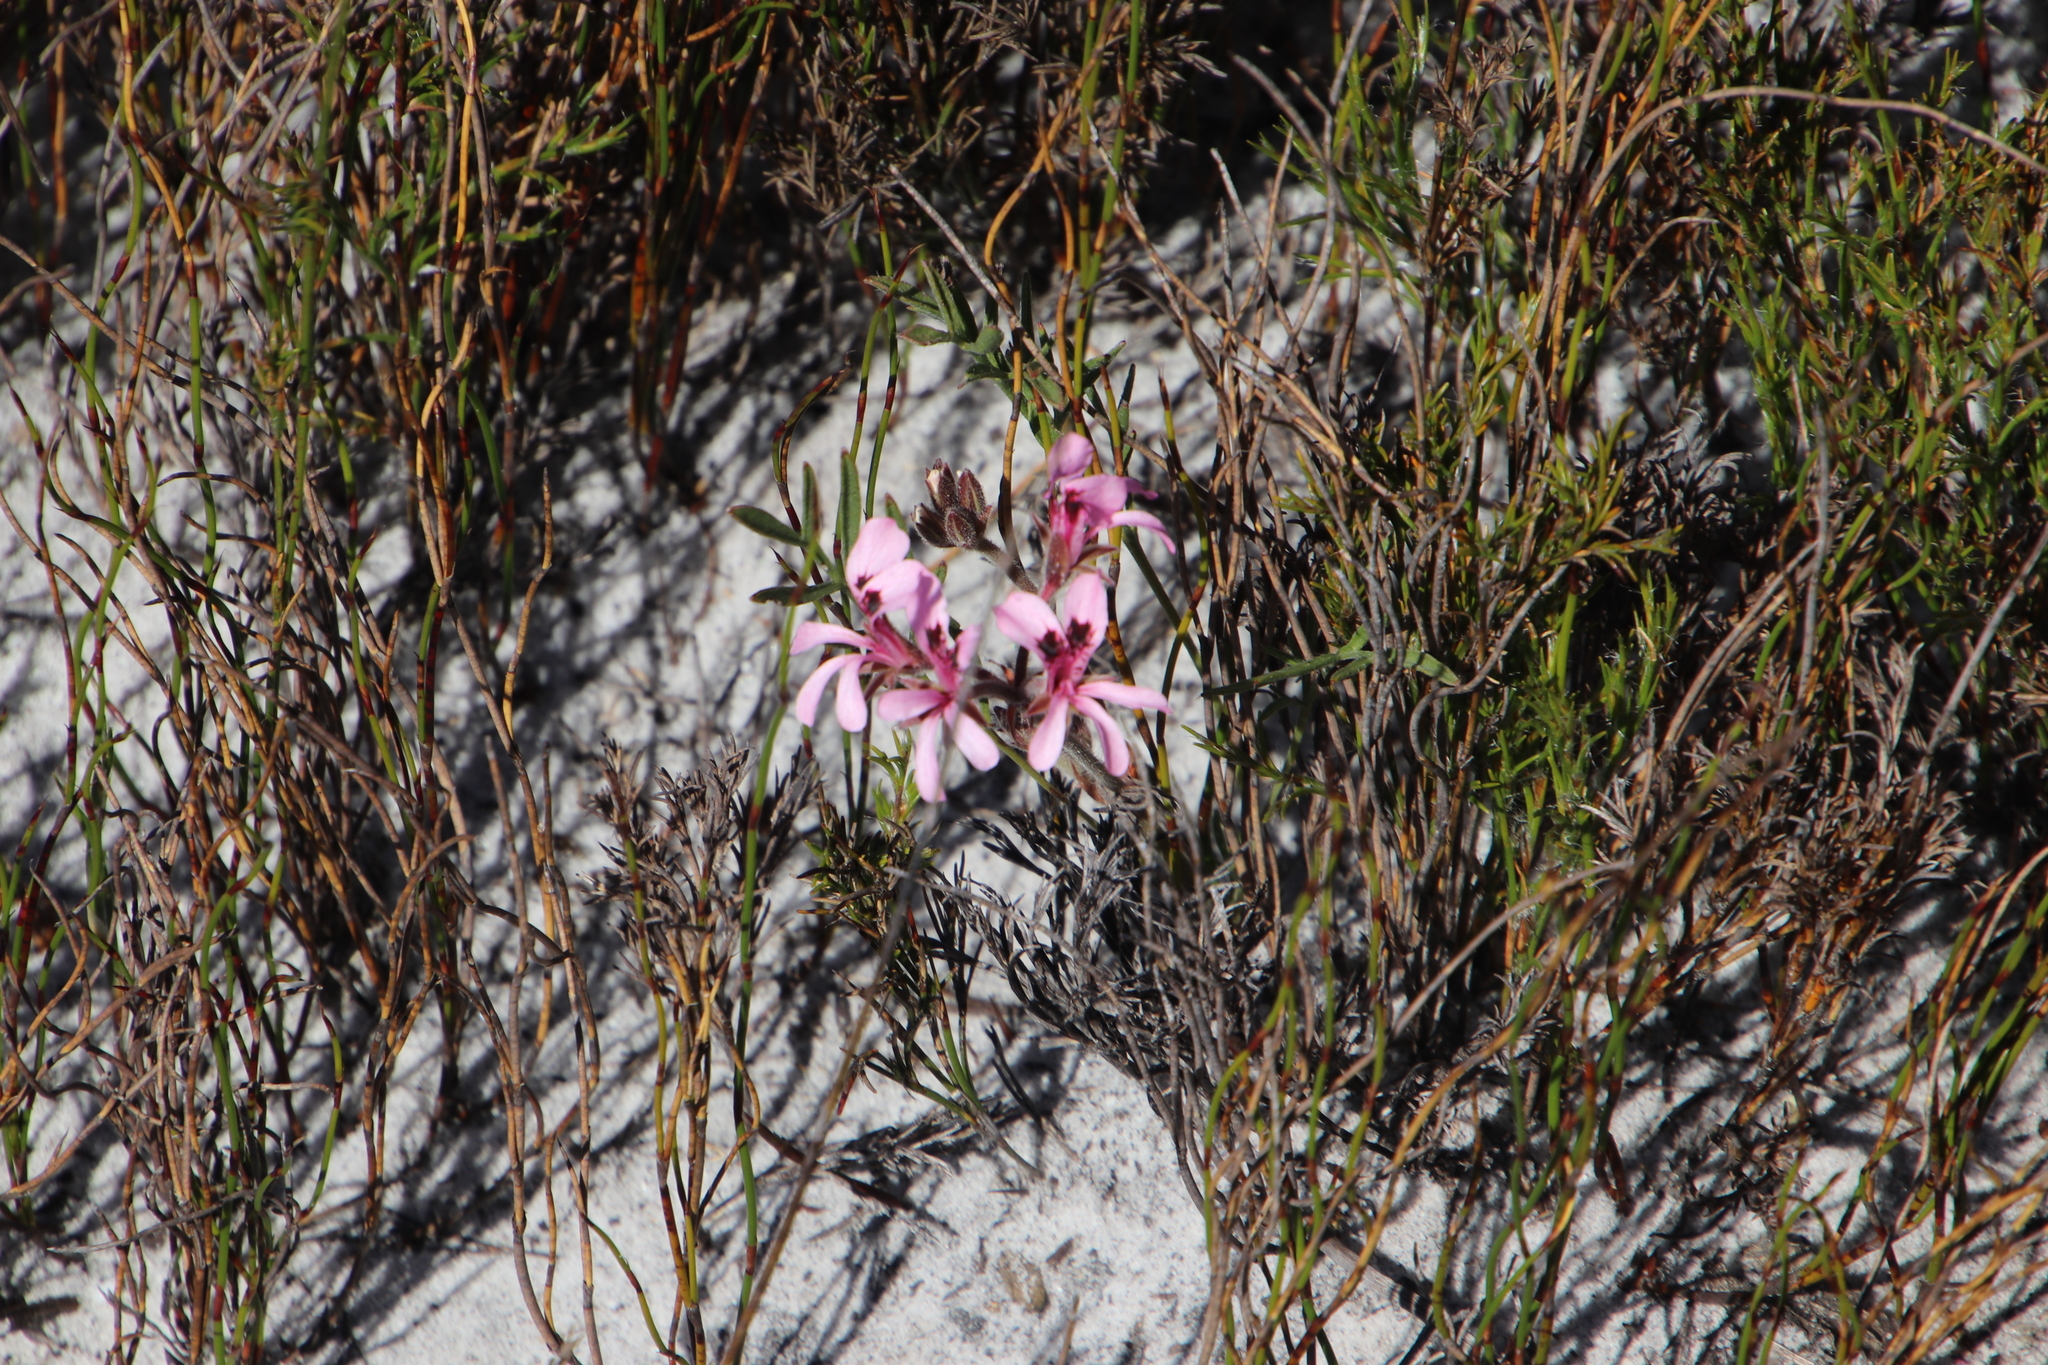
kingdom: Plantae
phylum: Tracheophyta
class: Magnoliopsida
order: Geraniales
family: Geraniaceae
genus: Pelargonium
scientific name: Pelargonium psammophilum
